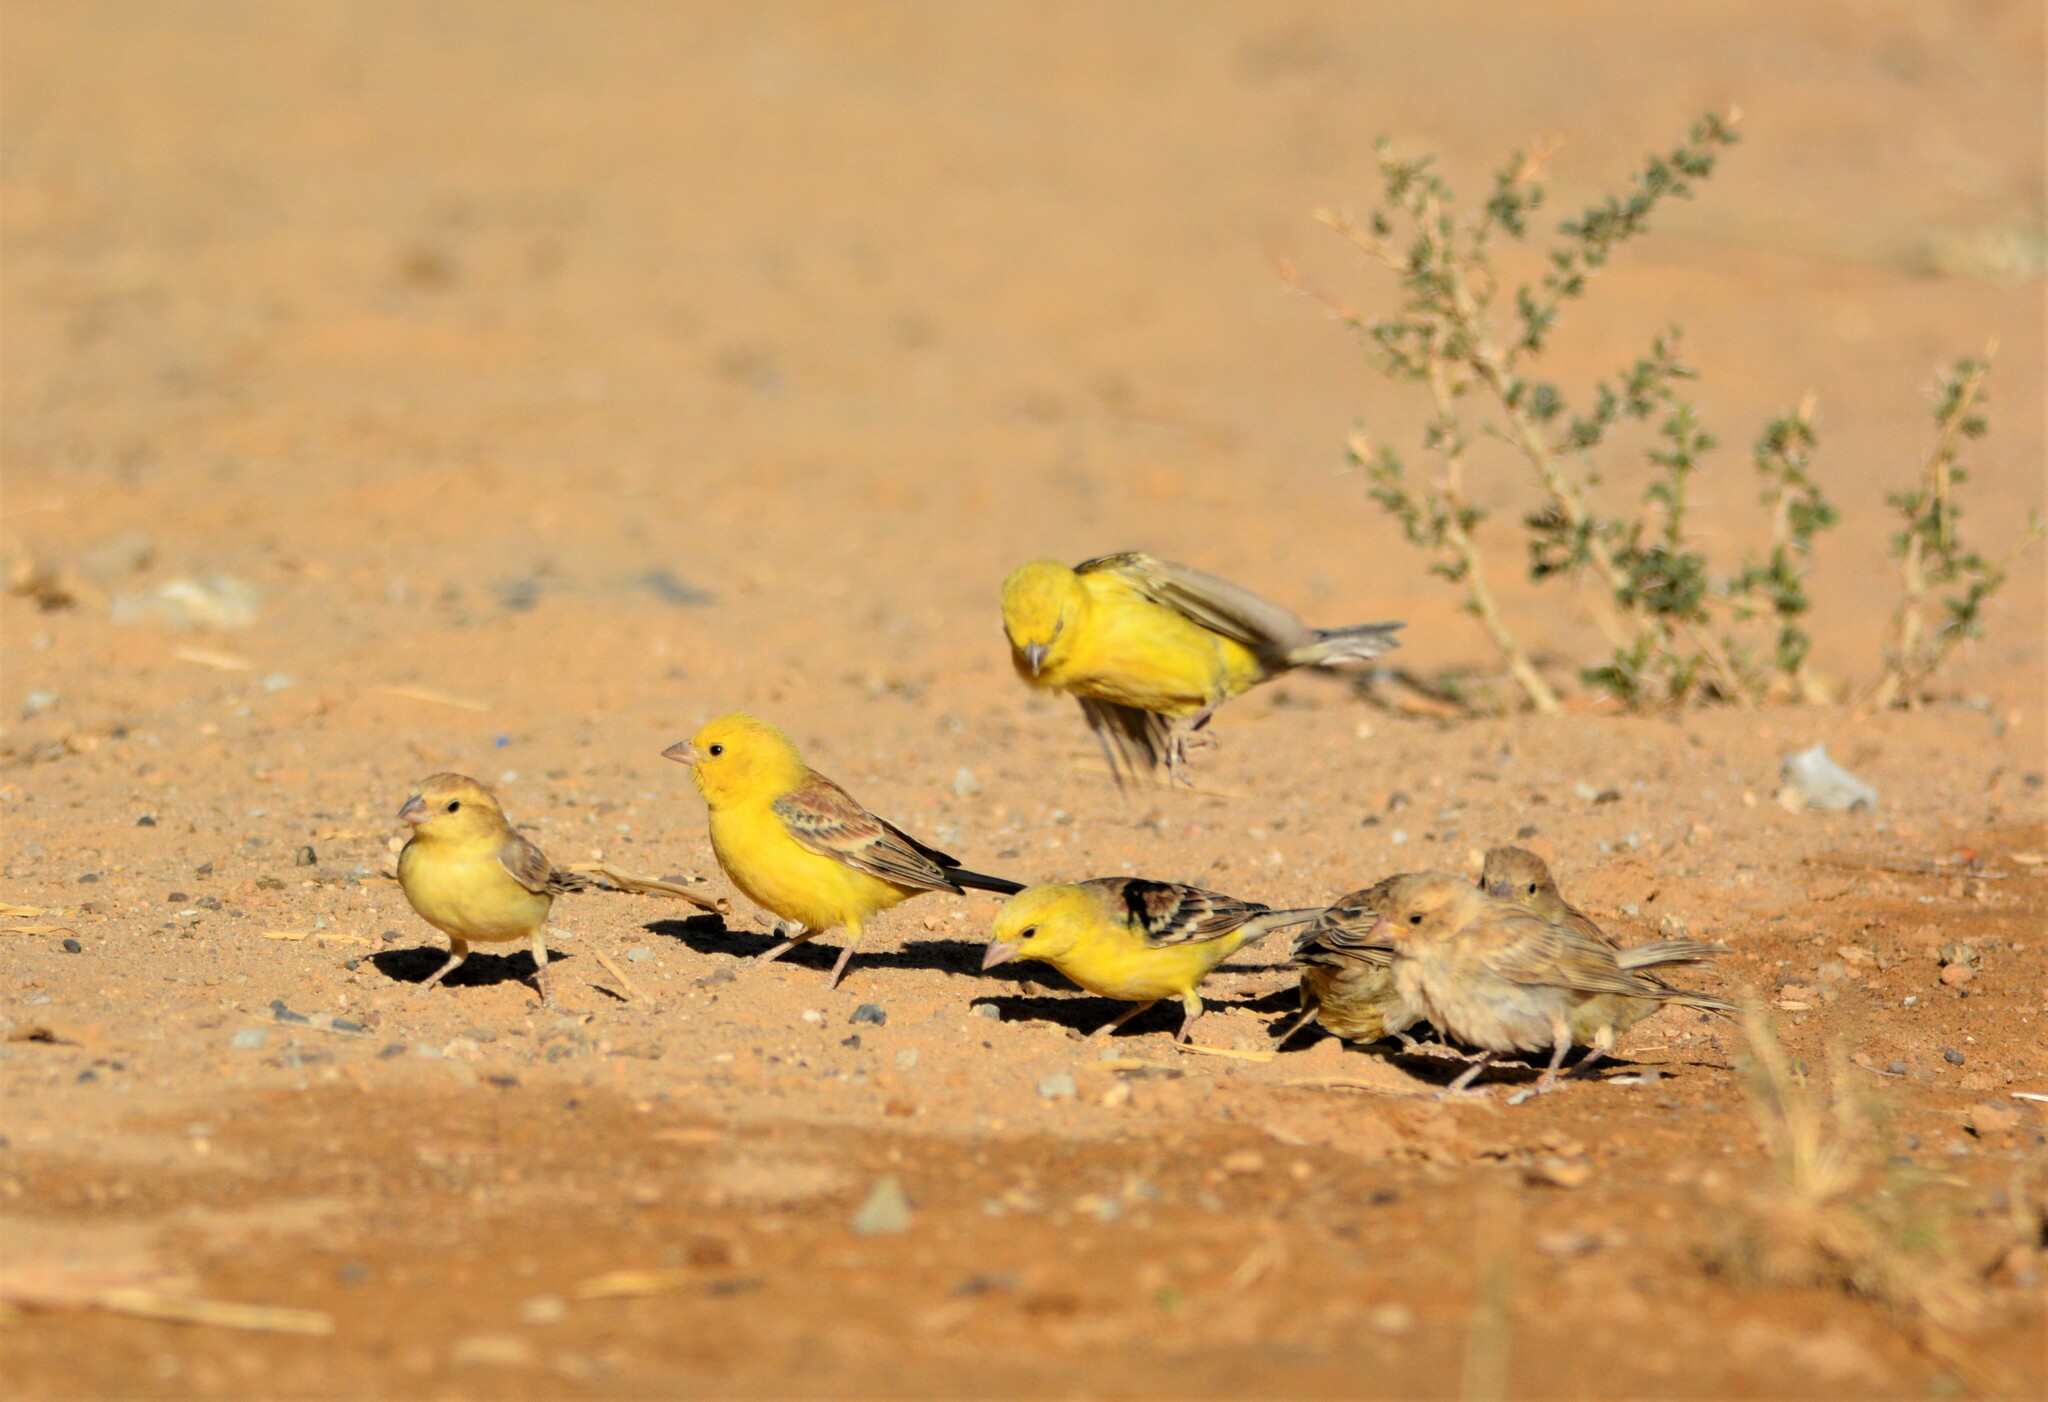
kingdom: Animalia
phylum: Chordata
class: Aves
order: Passeriformes
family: Passeridae
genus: Passer
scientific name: Passer luteus
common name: Sudan golden sparrow
